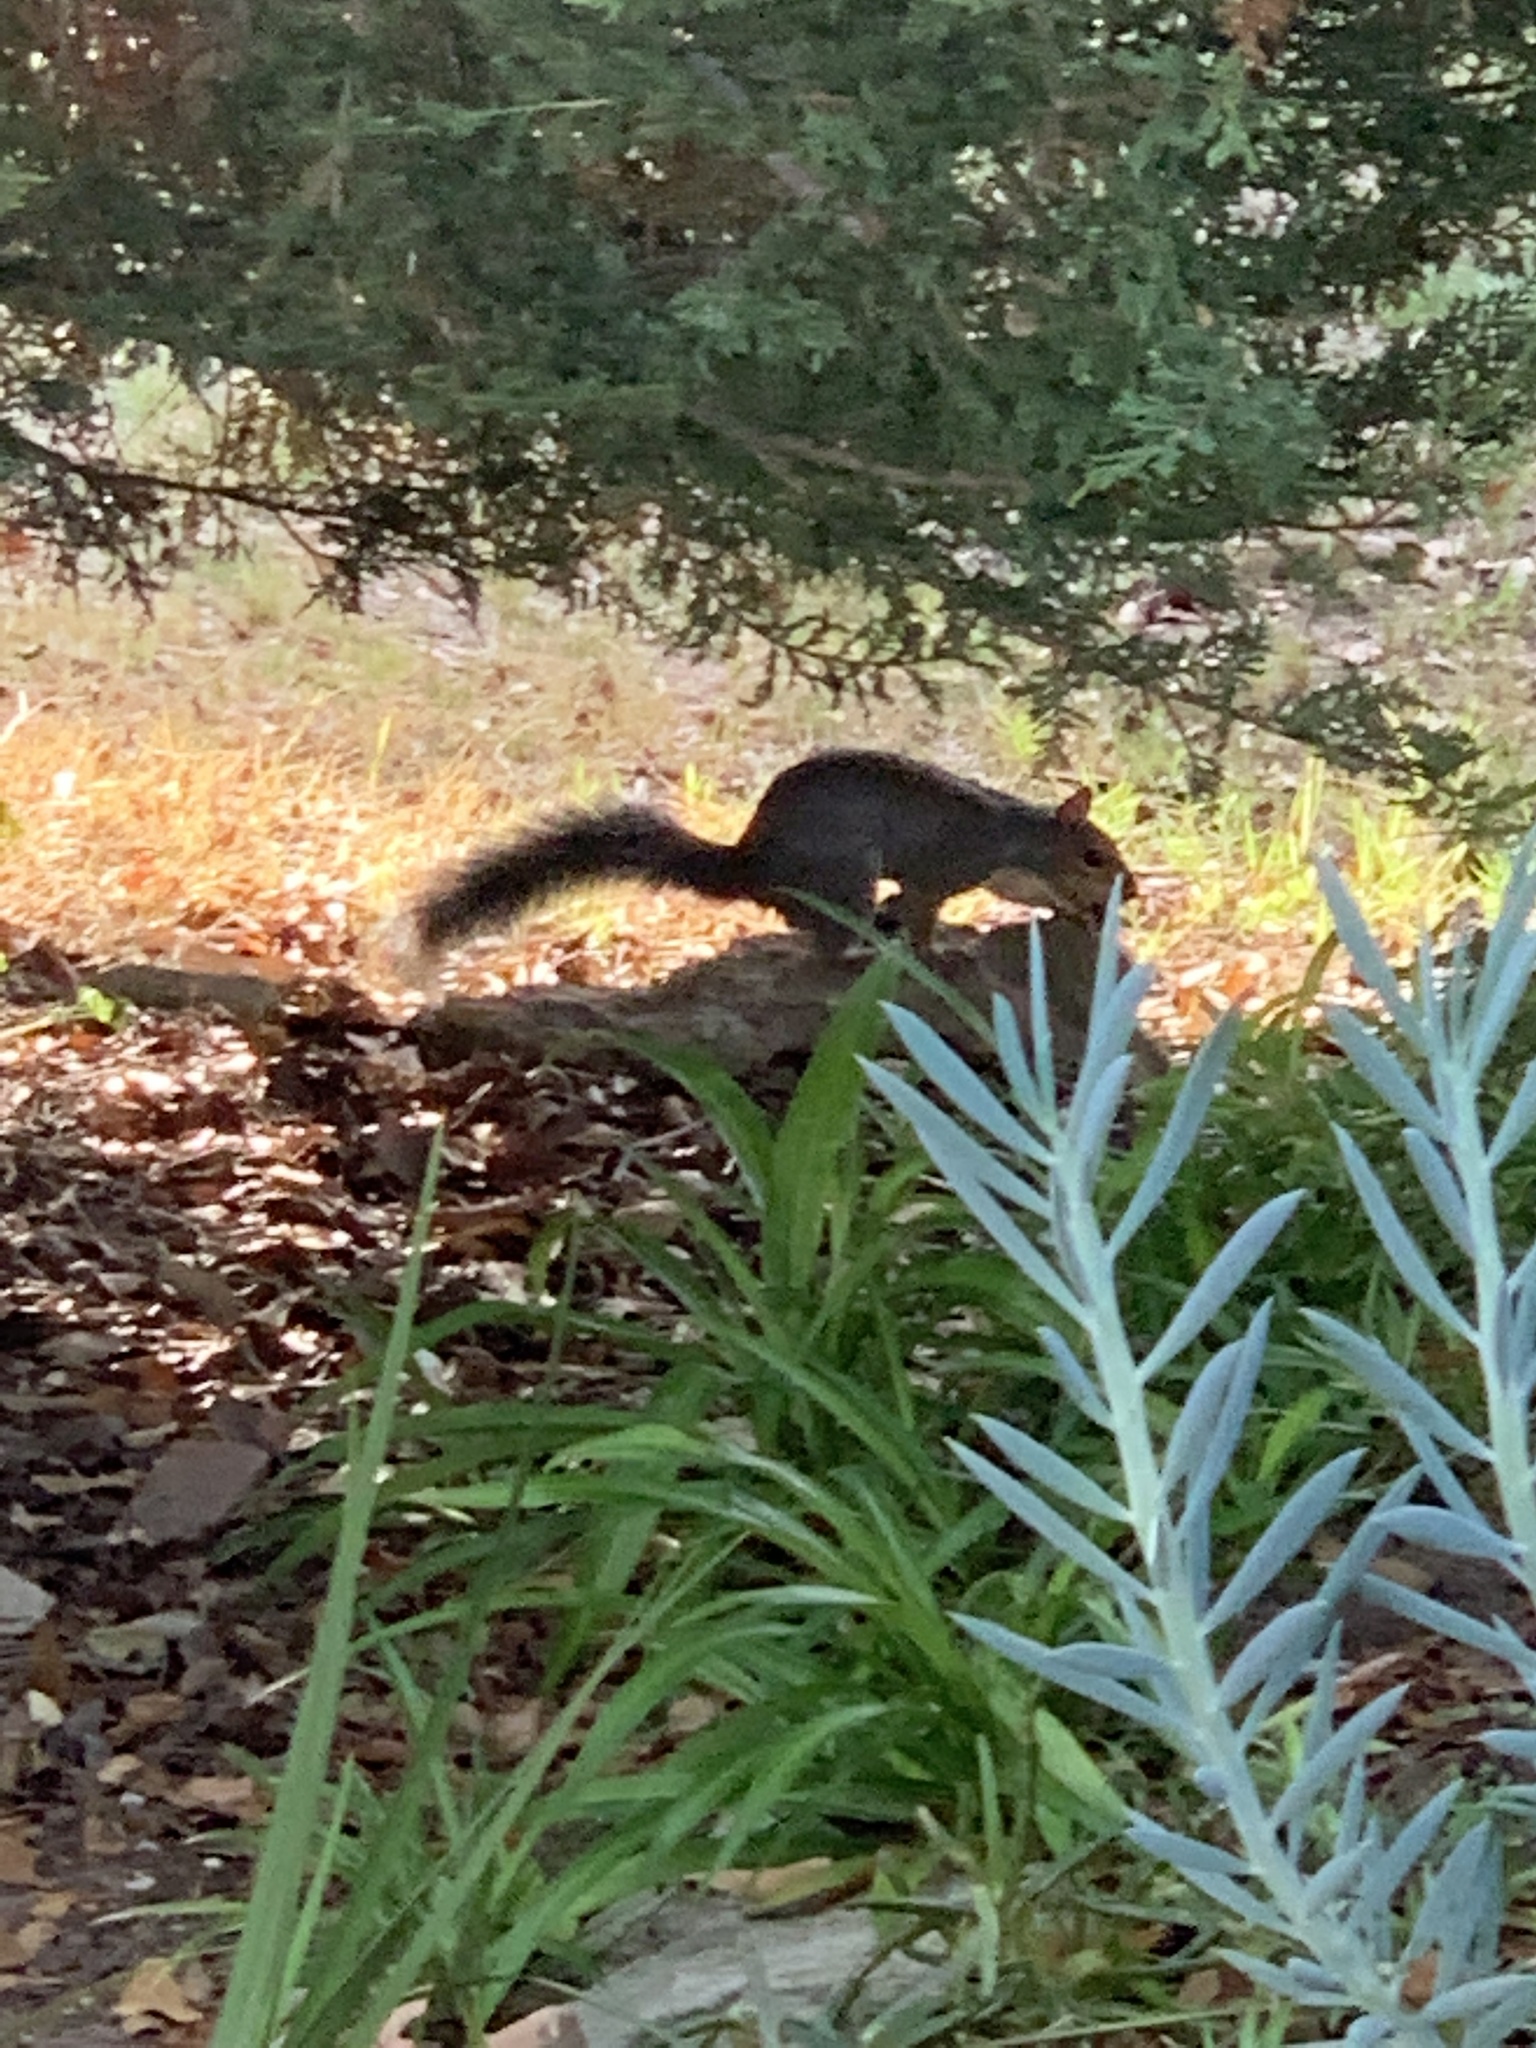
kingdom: Animalia
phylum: Chordata
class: Mammalia
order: Rodentia
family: Sciuridae
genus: Sciurus
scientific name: Sciurus carolinensis
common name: Eastern gray squirrel
